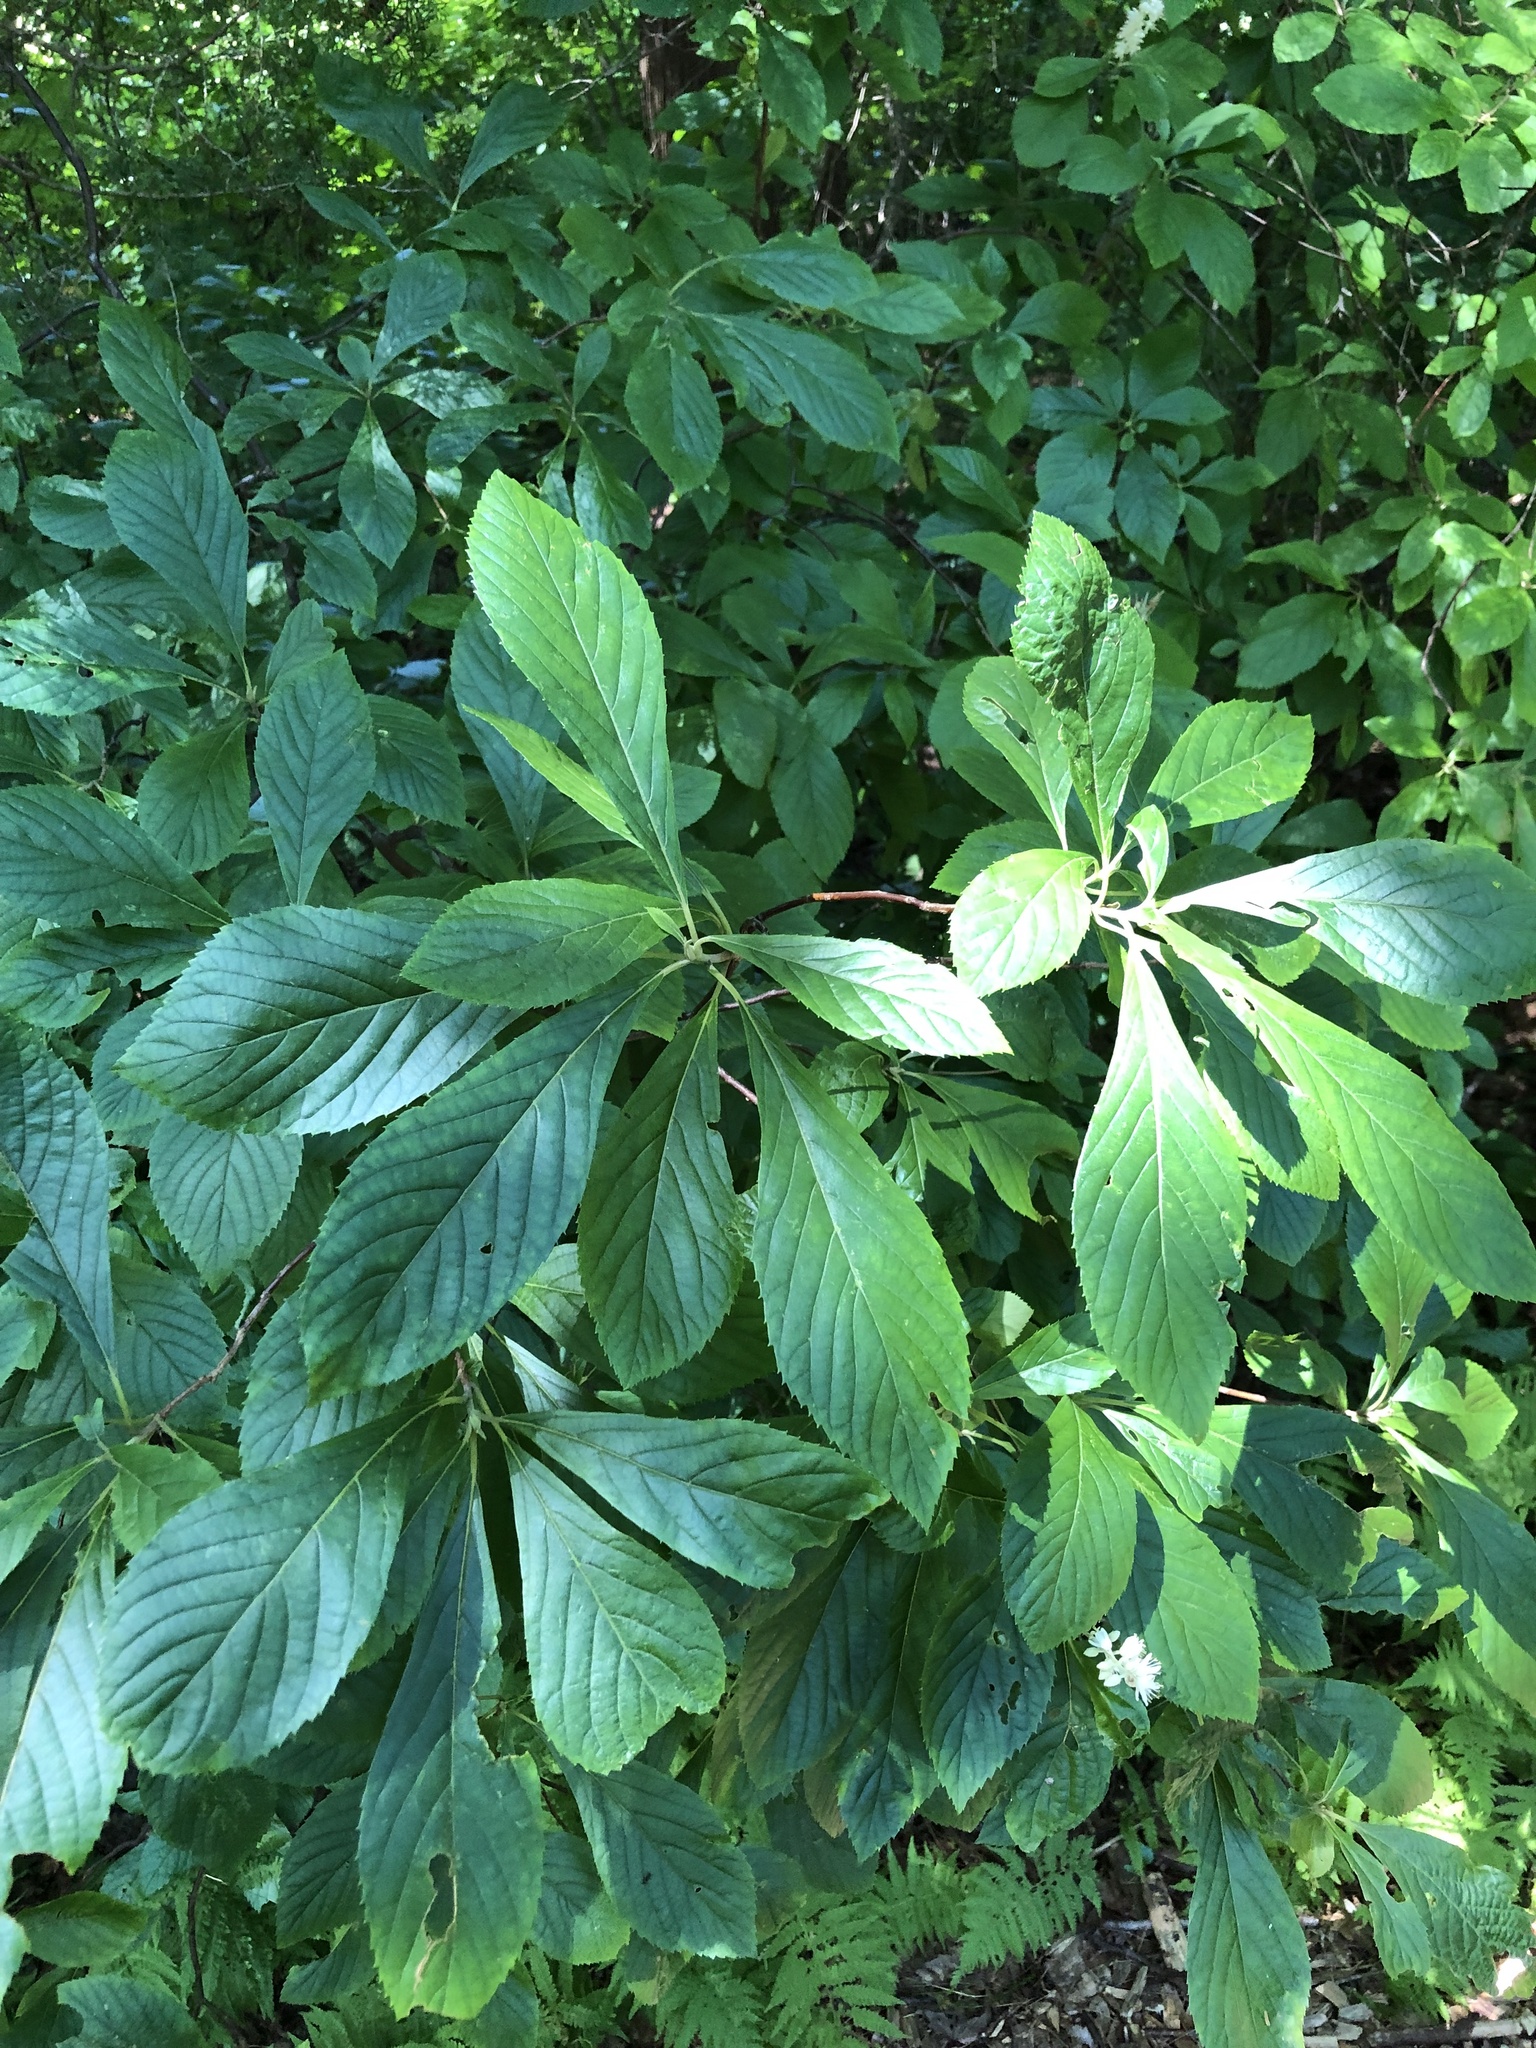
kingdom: Plantae
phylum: Tracheophyta
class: Magnoliopsida
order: Ericales
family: Clethraceae
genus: Clethra
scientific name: Clethra alnifolia
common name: Sweet pepperbush
